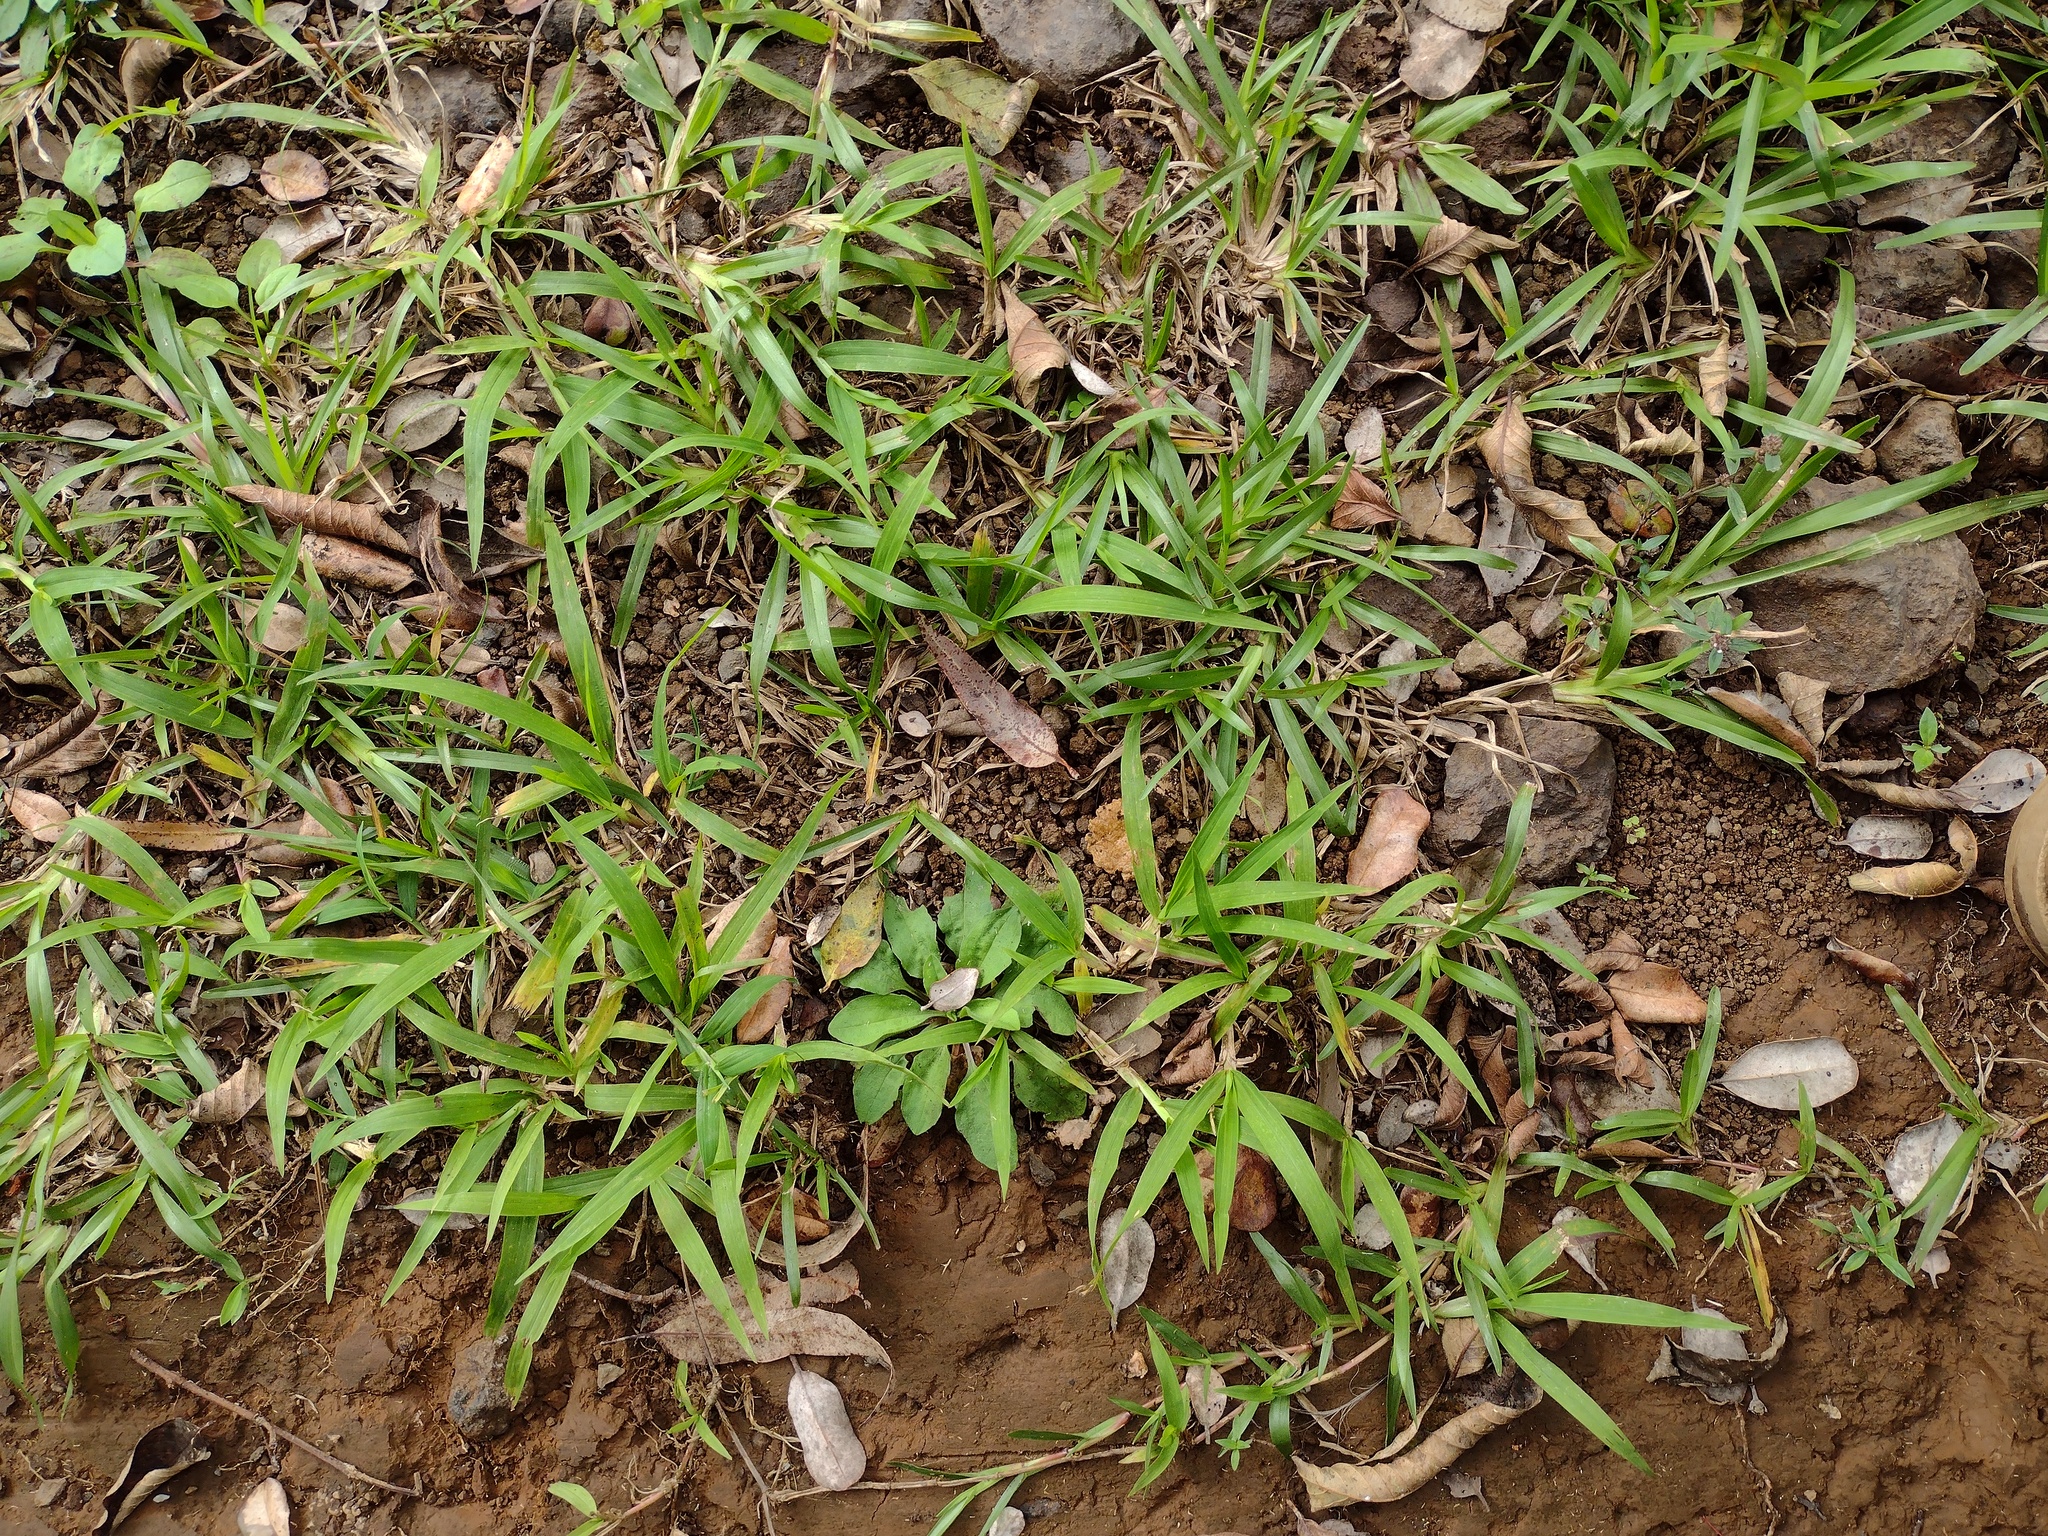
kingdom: Plantae
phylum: Tracheophyta
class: Liliopsida
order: Poales
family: Poaceae
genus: Paspalum
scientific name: Paspalum conjugatum
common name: Hilograss
